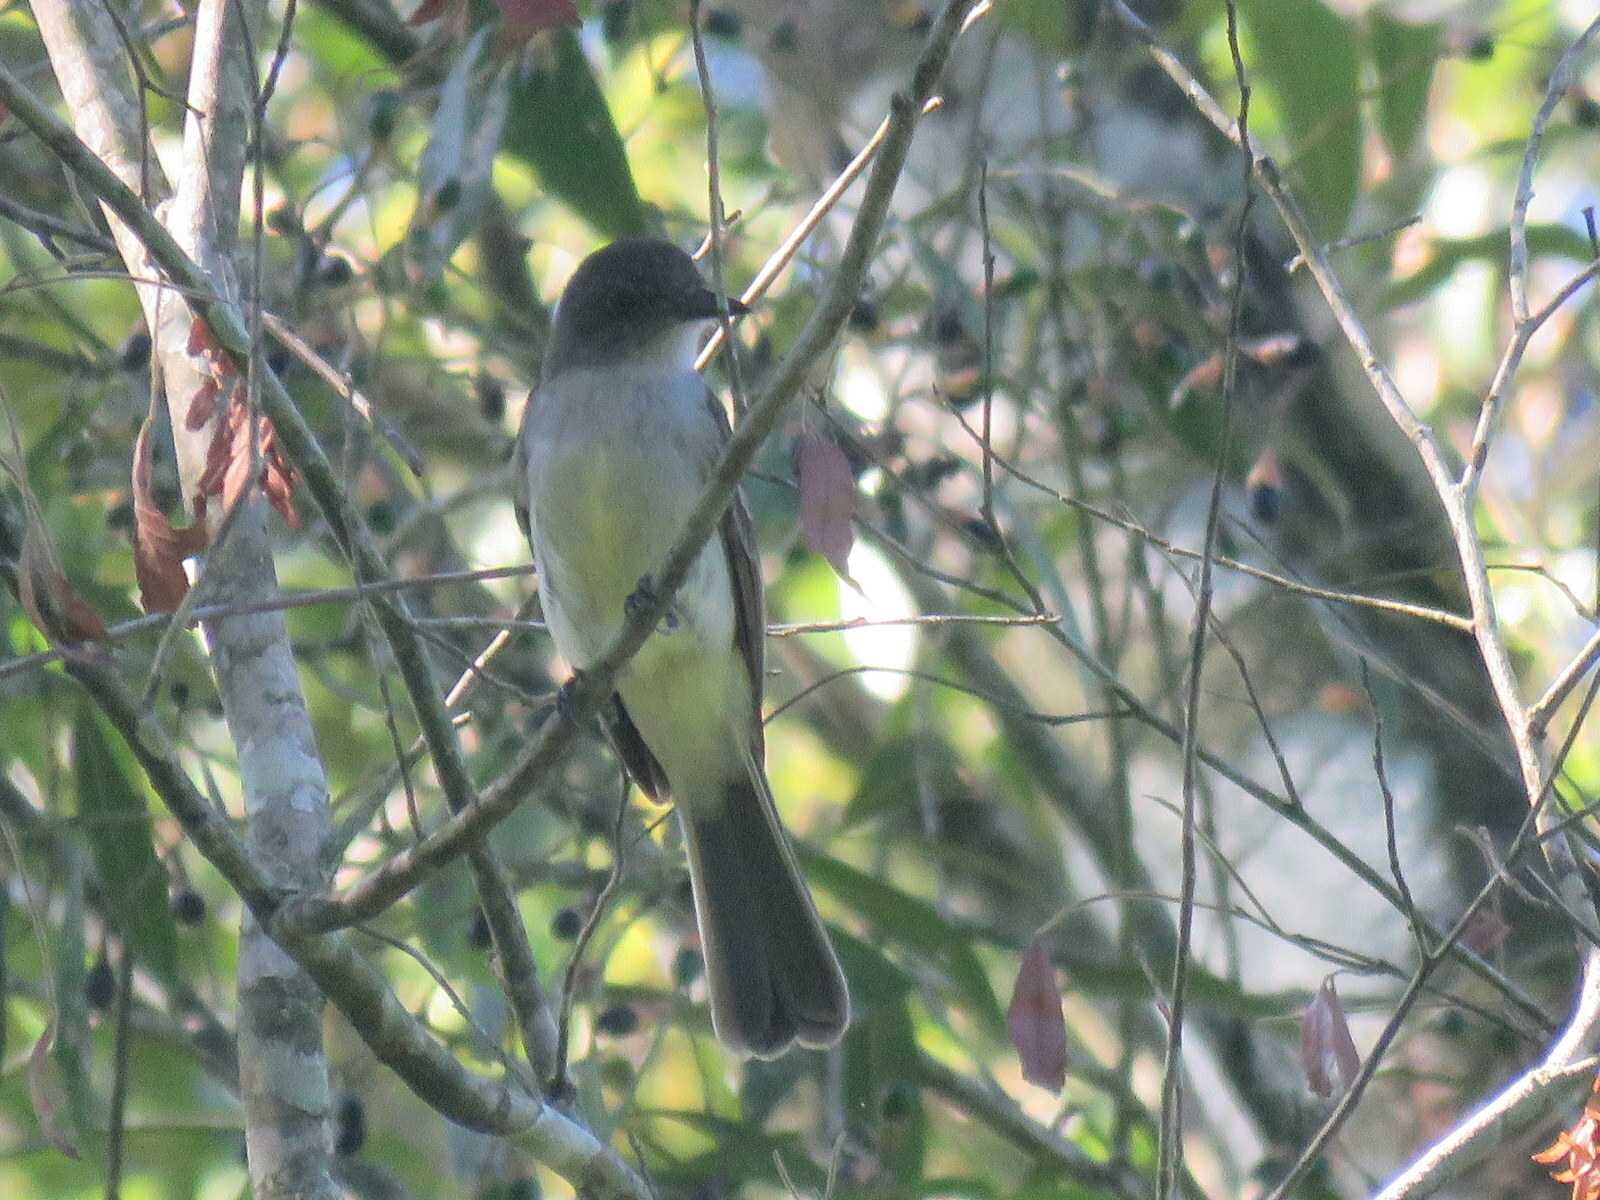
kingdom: Animalia
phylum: Chordata
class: Aves
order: Passeriformes
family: Tyrannidae
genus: Myiarchus
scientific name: Myiarchus ferox
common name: Short-crested flycatcher
